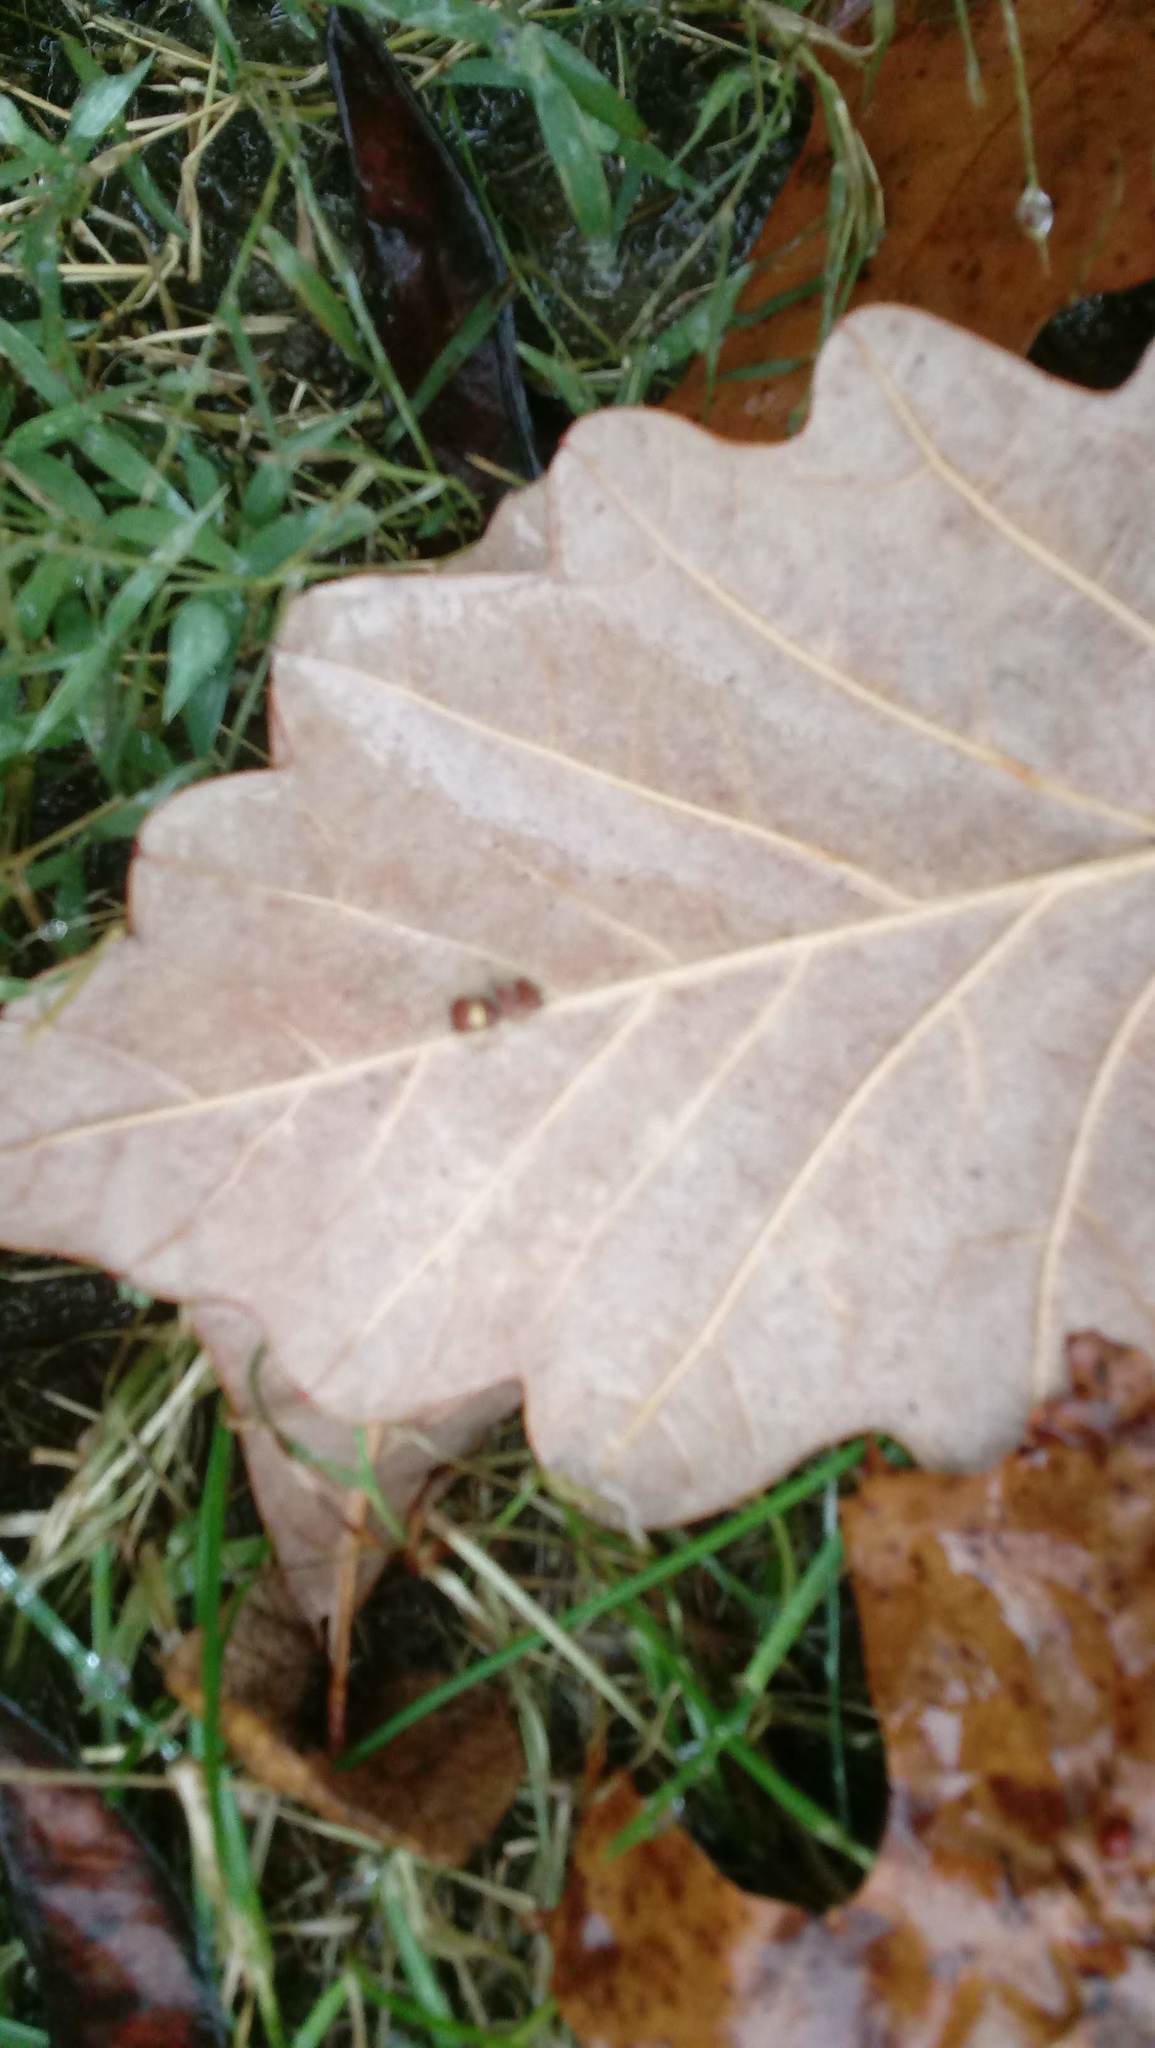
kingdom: Animalia
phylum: Arthropoda
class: Insecta
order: Hymenoptera
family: Cynipidae
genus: Andricus
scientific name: Andricus Druon ignotum
